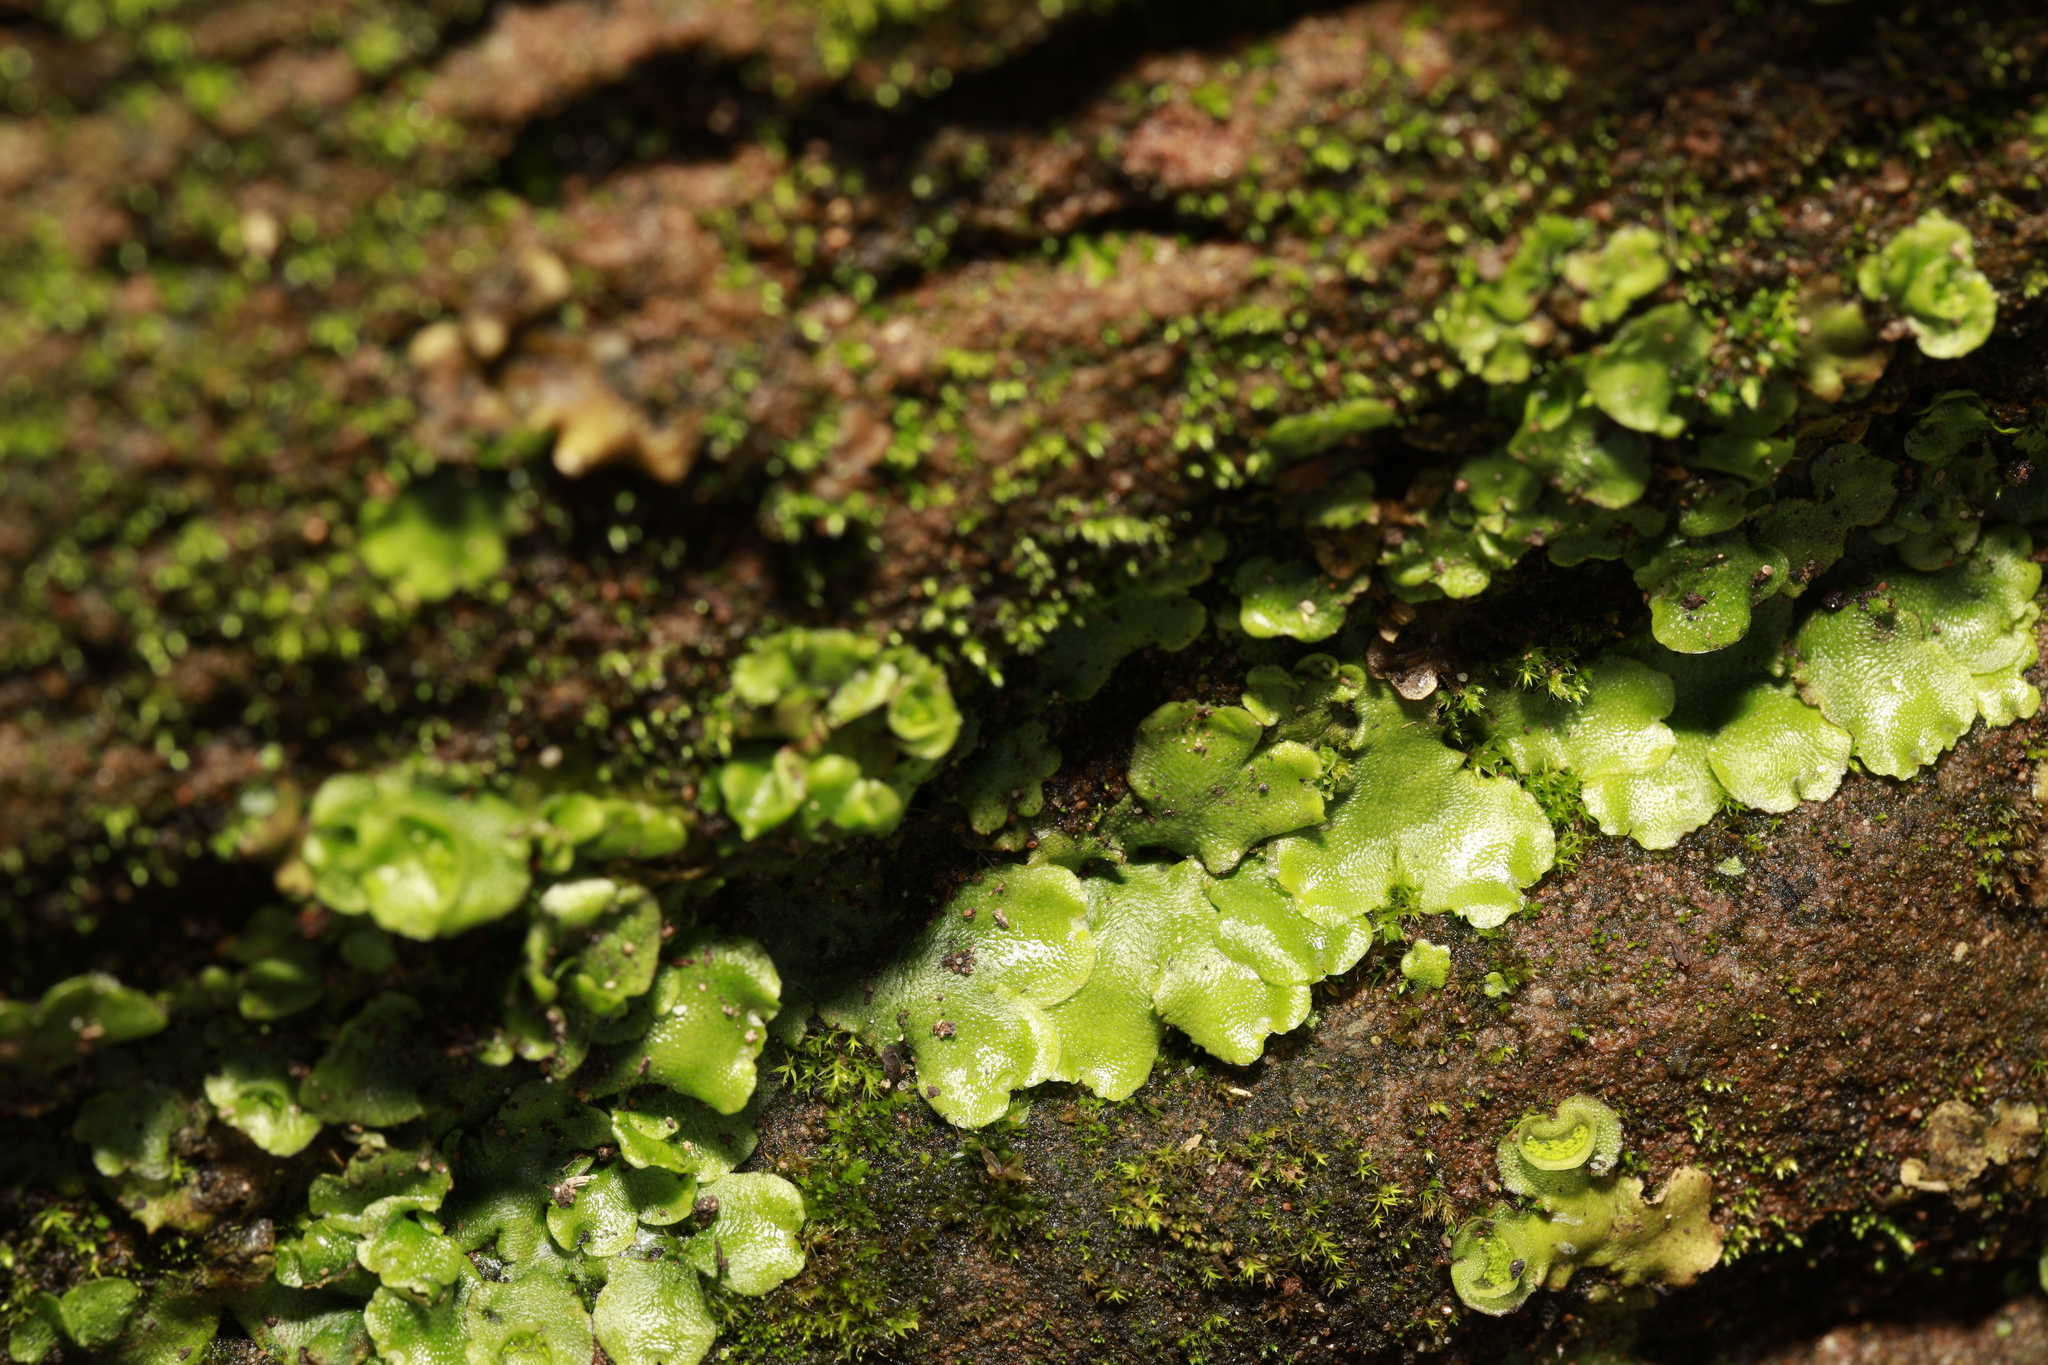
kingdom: Plantae
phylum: Marchantiophyta
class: Marchantiopsida
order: Lunulariales
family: Lunulariaceae
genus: Lunularia
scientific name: Lunularia cruciata
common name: Crescent-cup liverwort
